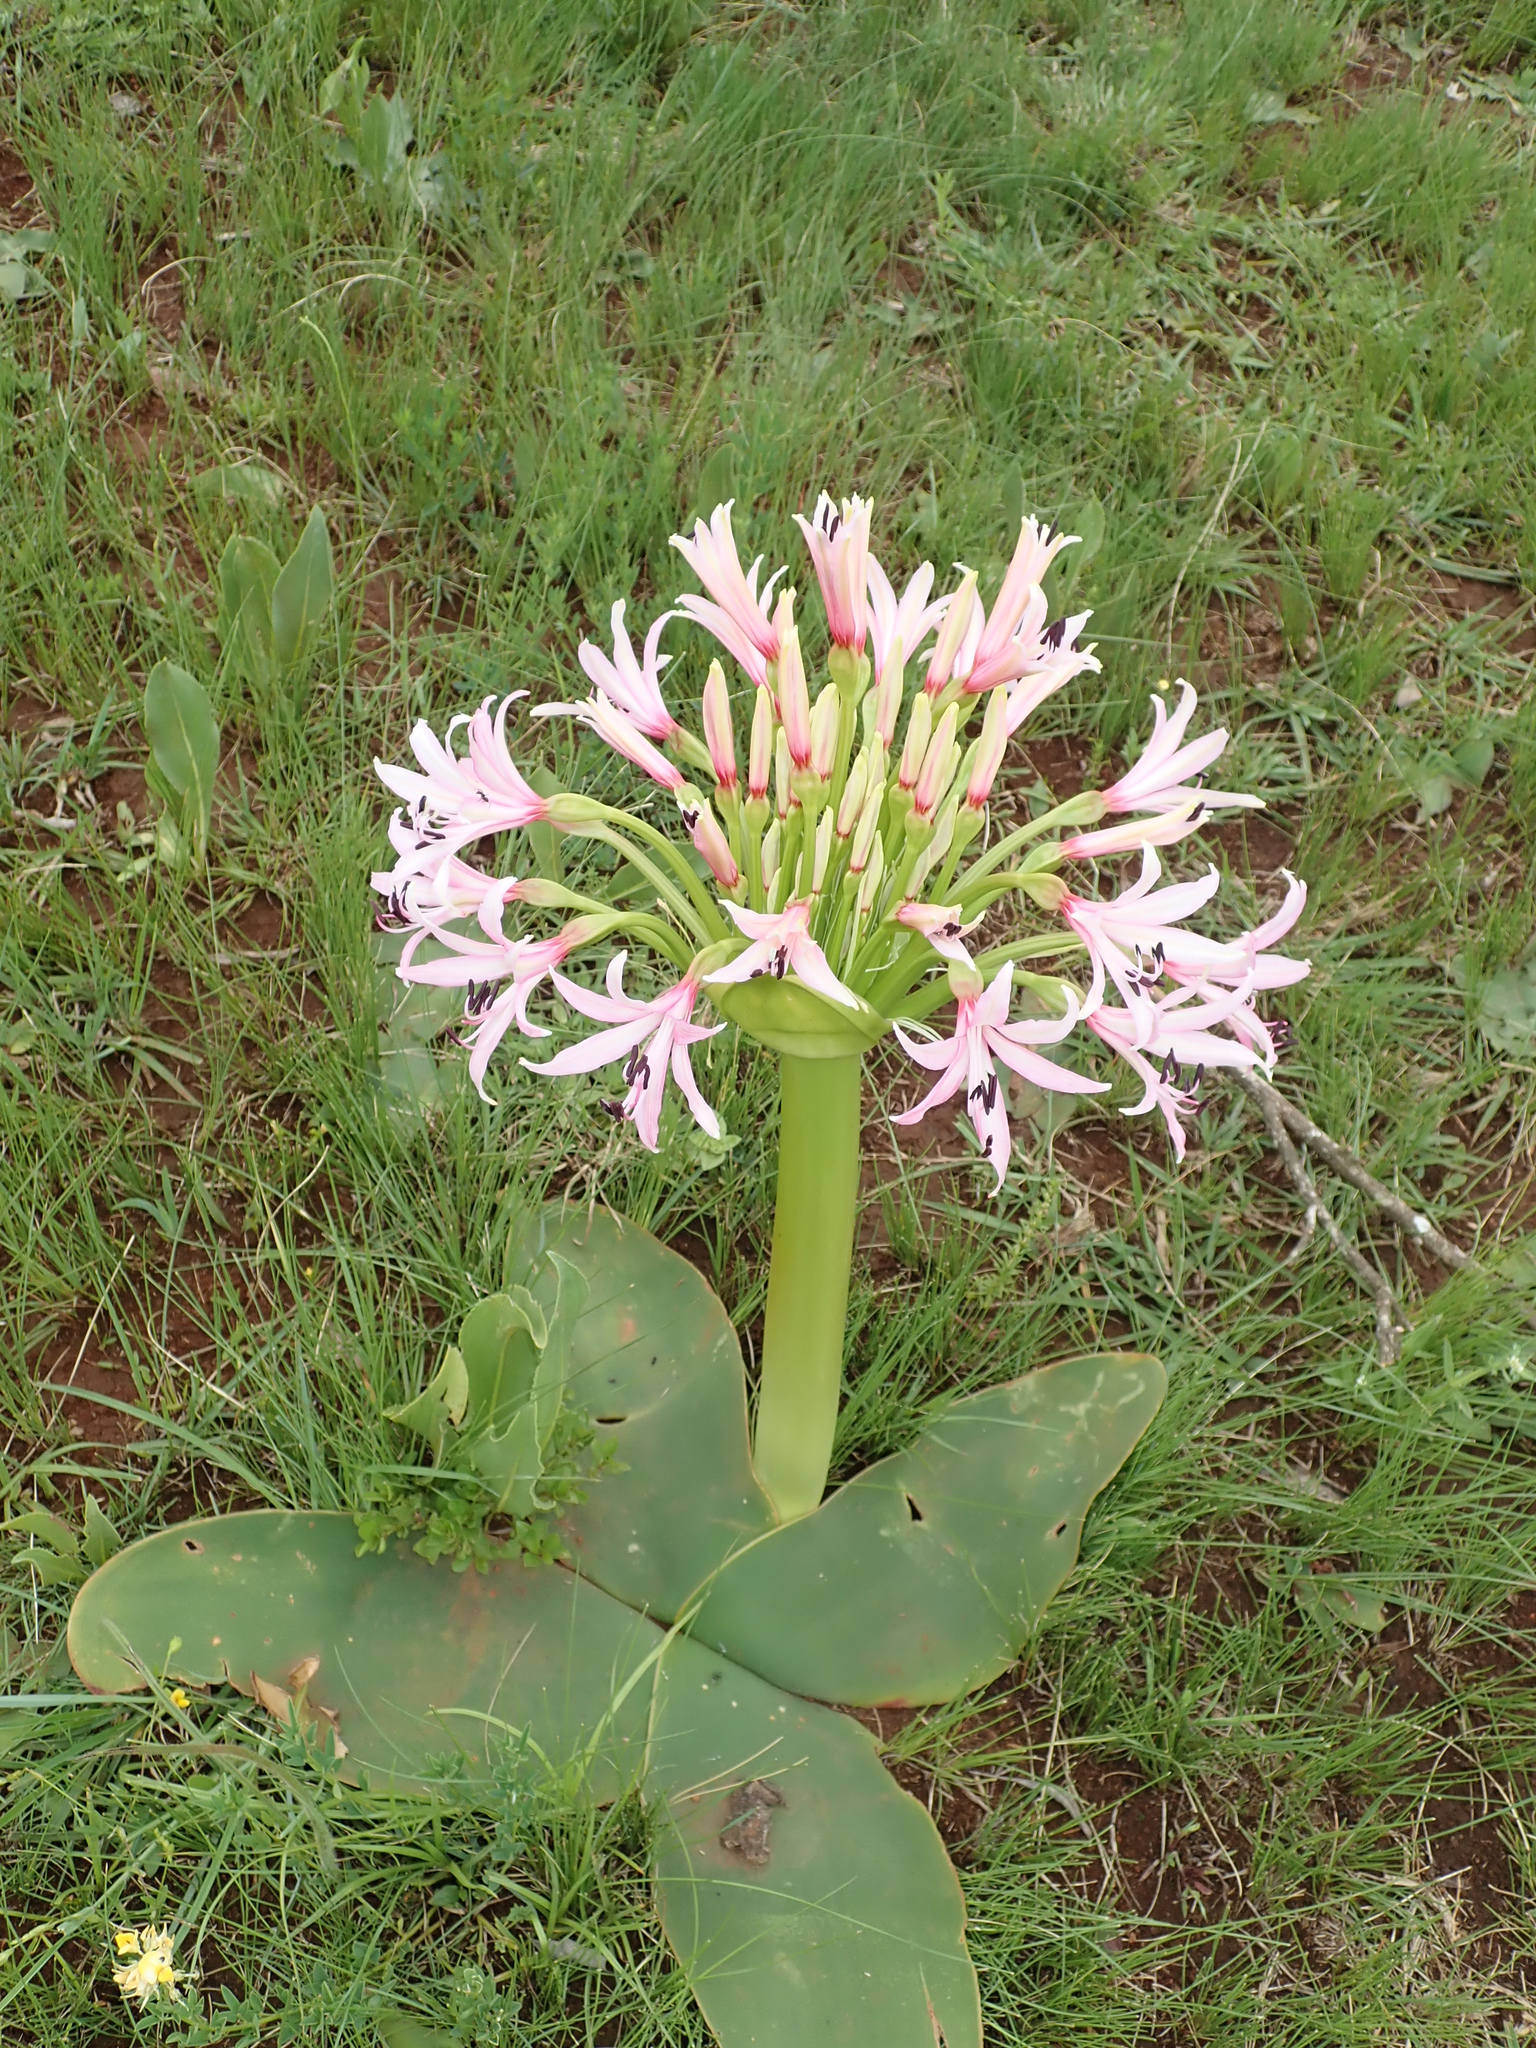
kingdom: Plantae
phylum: Tracheophyta
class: Liliopsida
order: Asparagales
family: Amaryllidaceae
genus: Brunsvigia
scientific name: Brunsvigia radulosa
